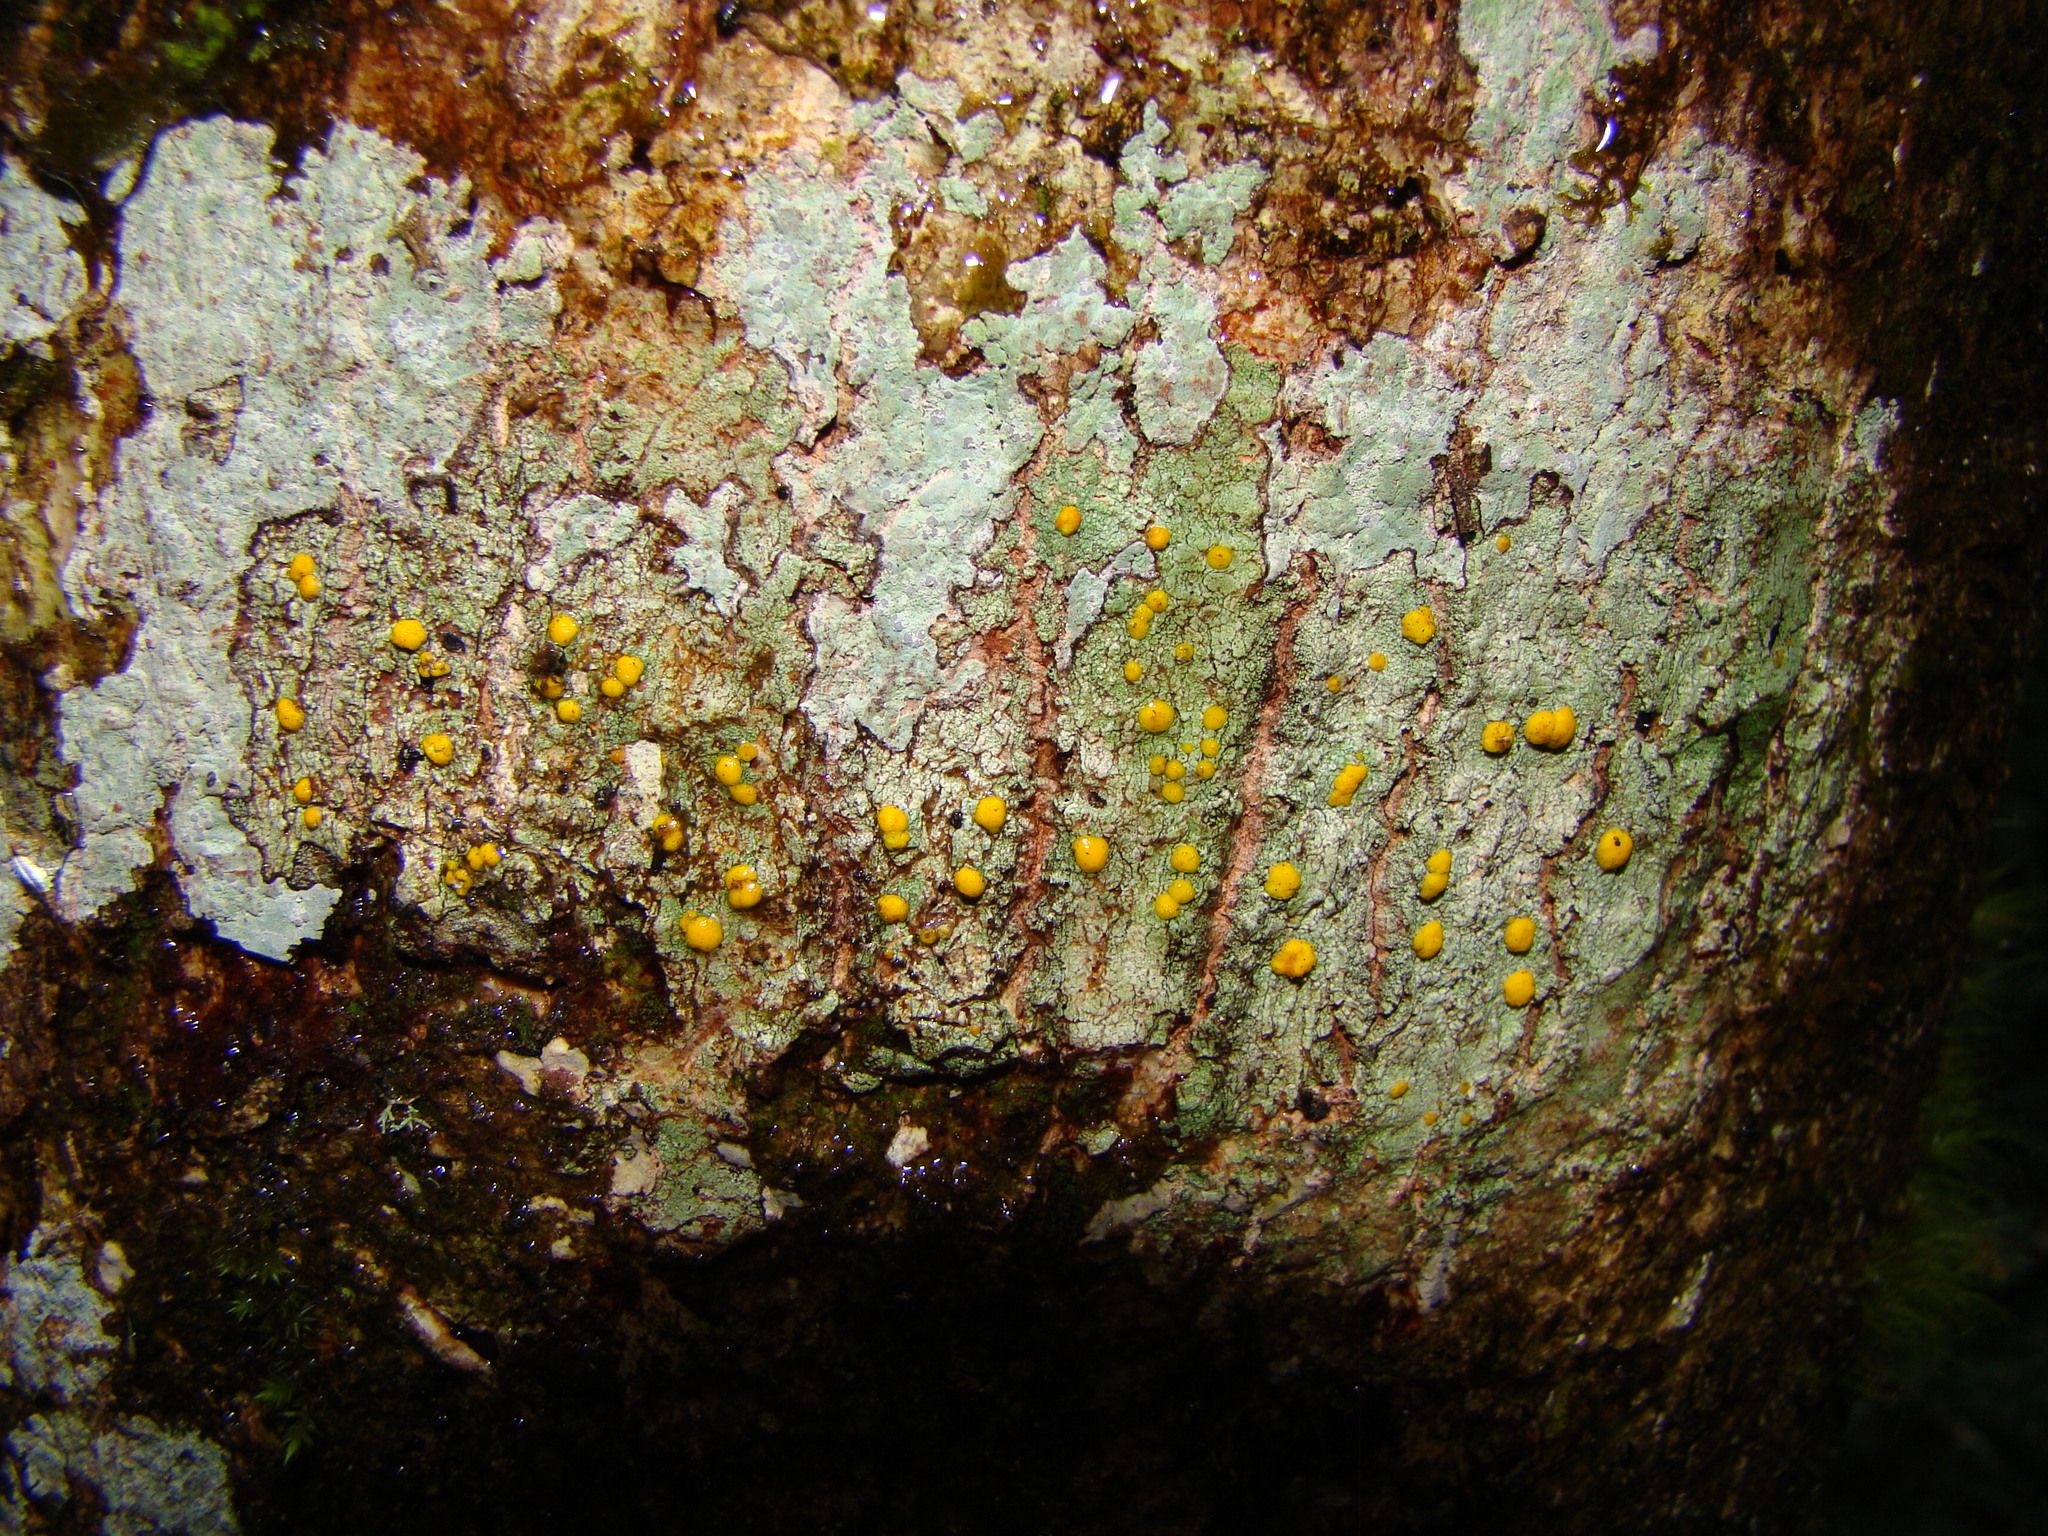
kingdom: Fungi
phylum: Ascomycota
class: Lecanoromycetes
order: Lecanorales
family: Ramalinaceae
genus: Stirtoniella
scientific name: Stirtoniella kelica
